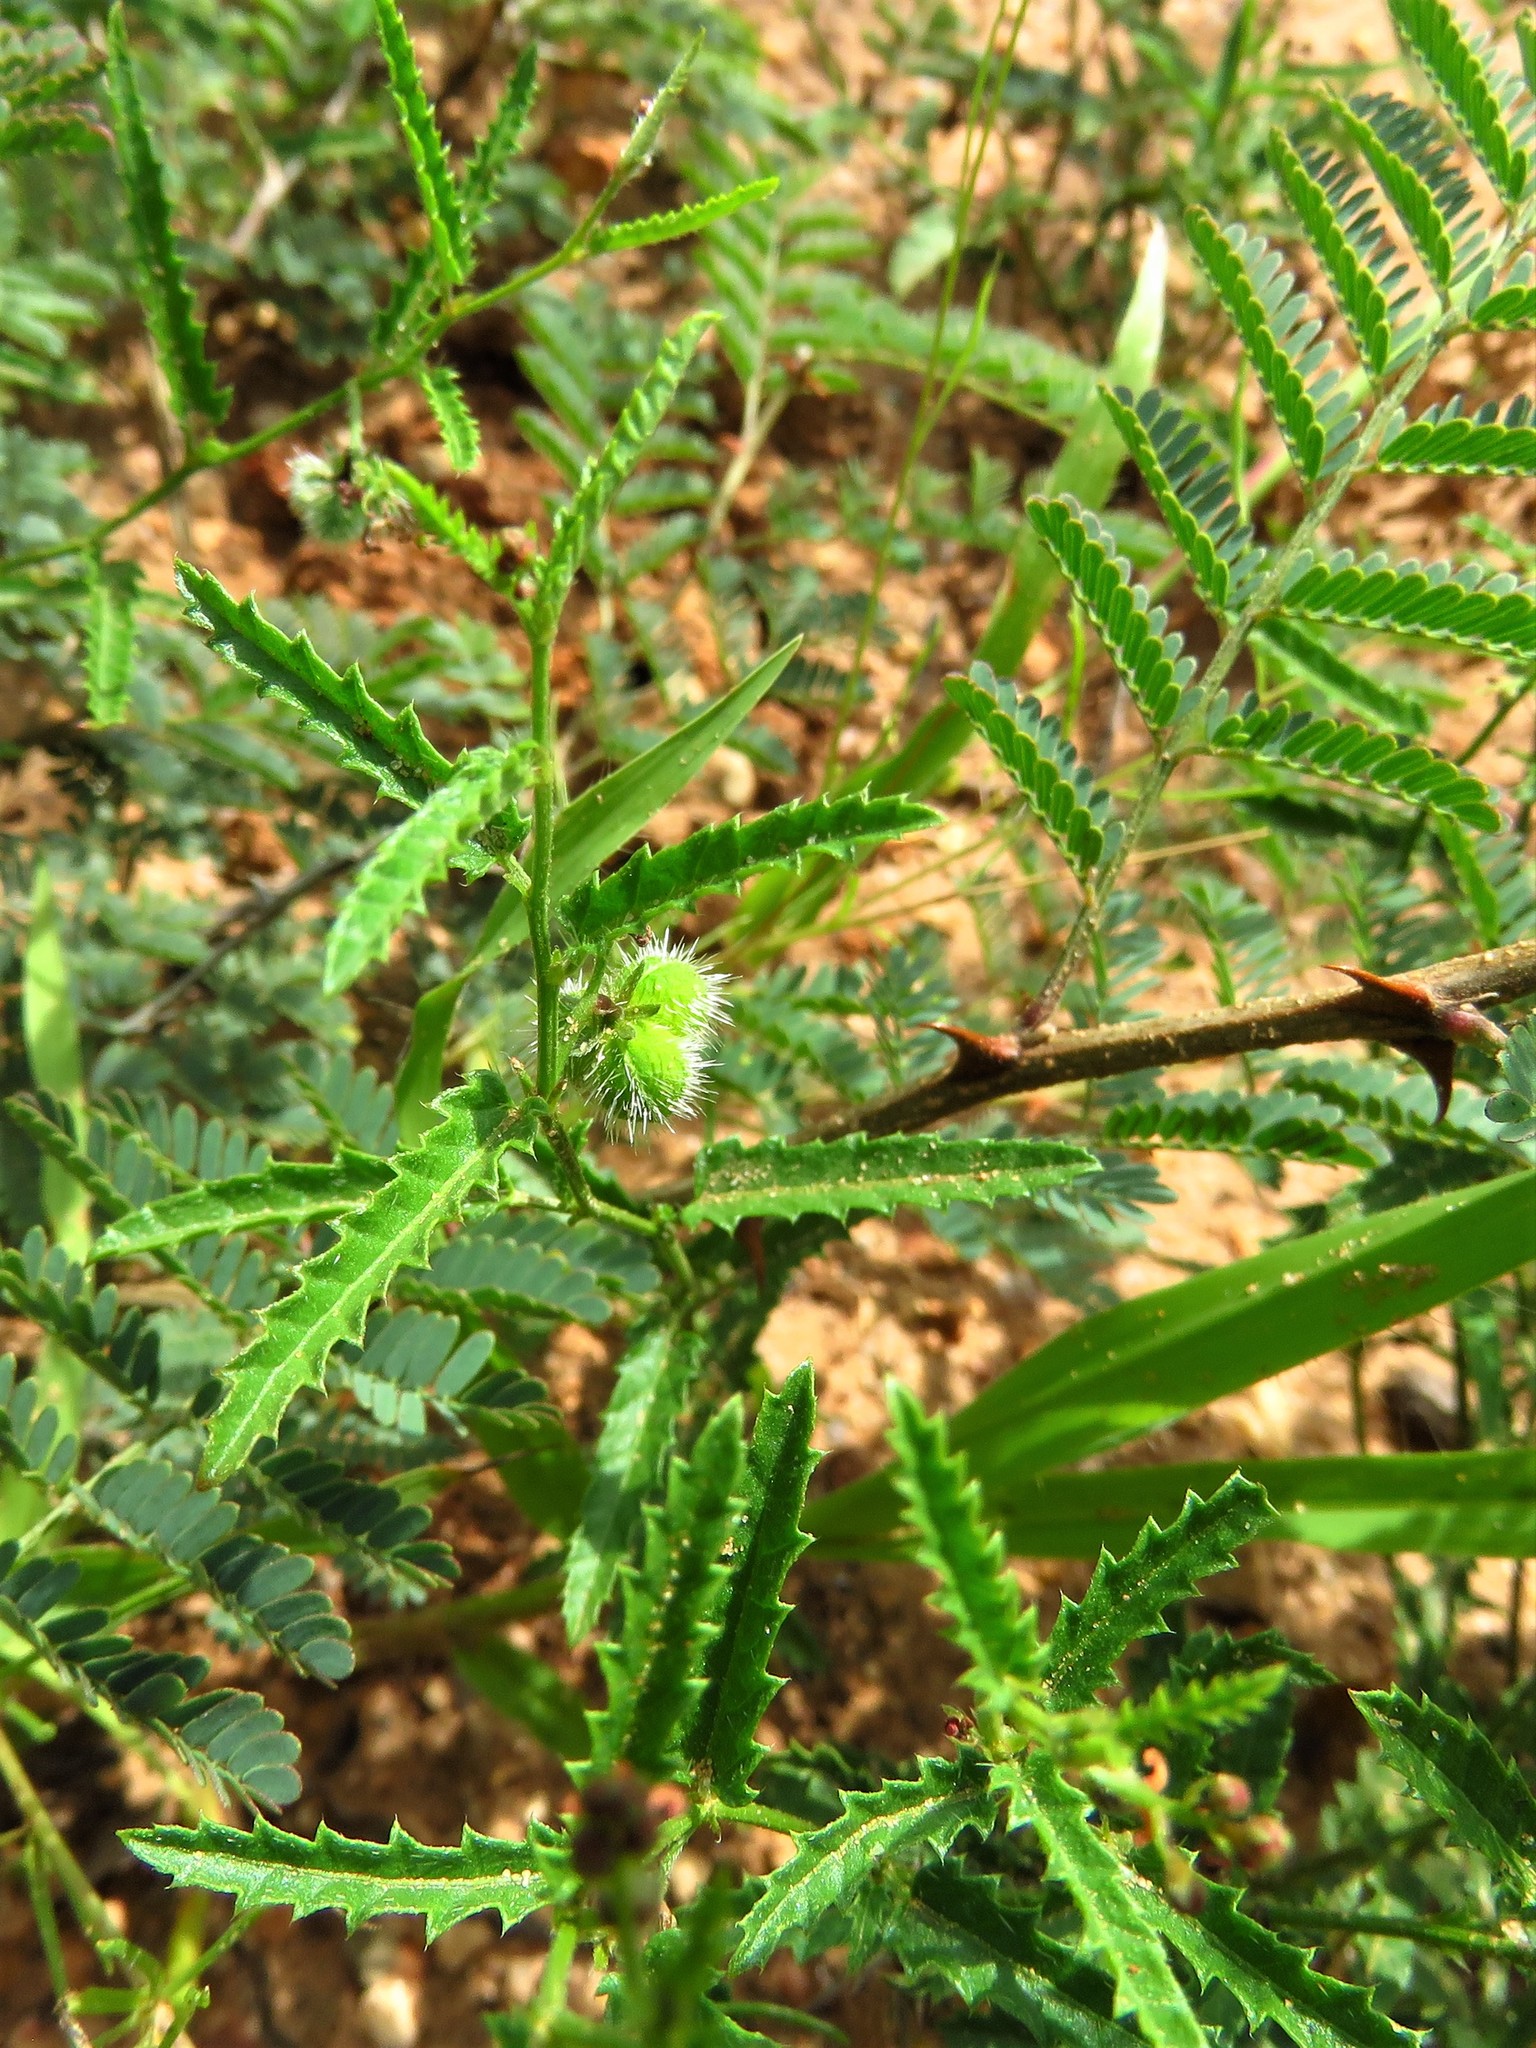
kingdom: Plantae
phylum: Tracheophyta
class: Magnoliopsida
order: Malpighiales
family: Euphorbiaceae
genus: Tragia
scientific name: Tragia ramosa
